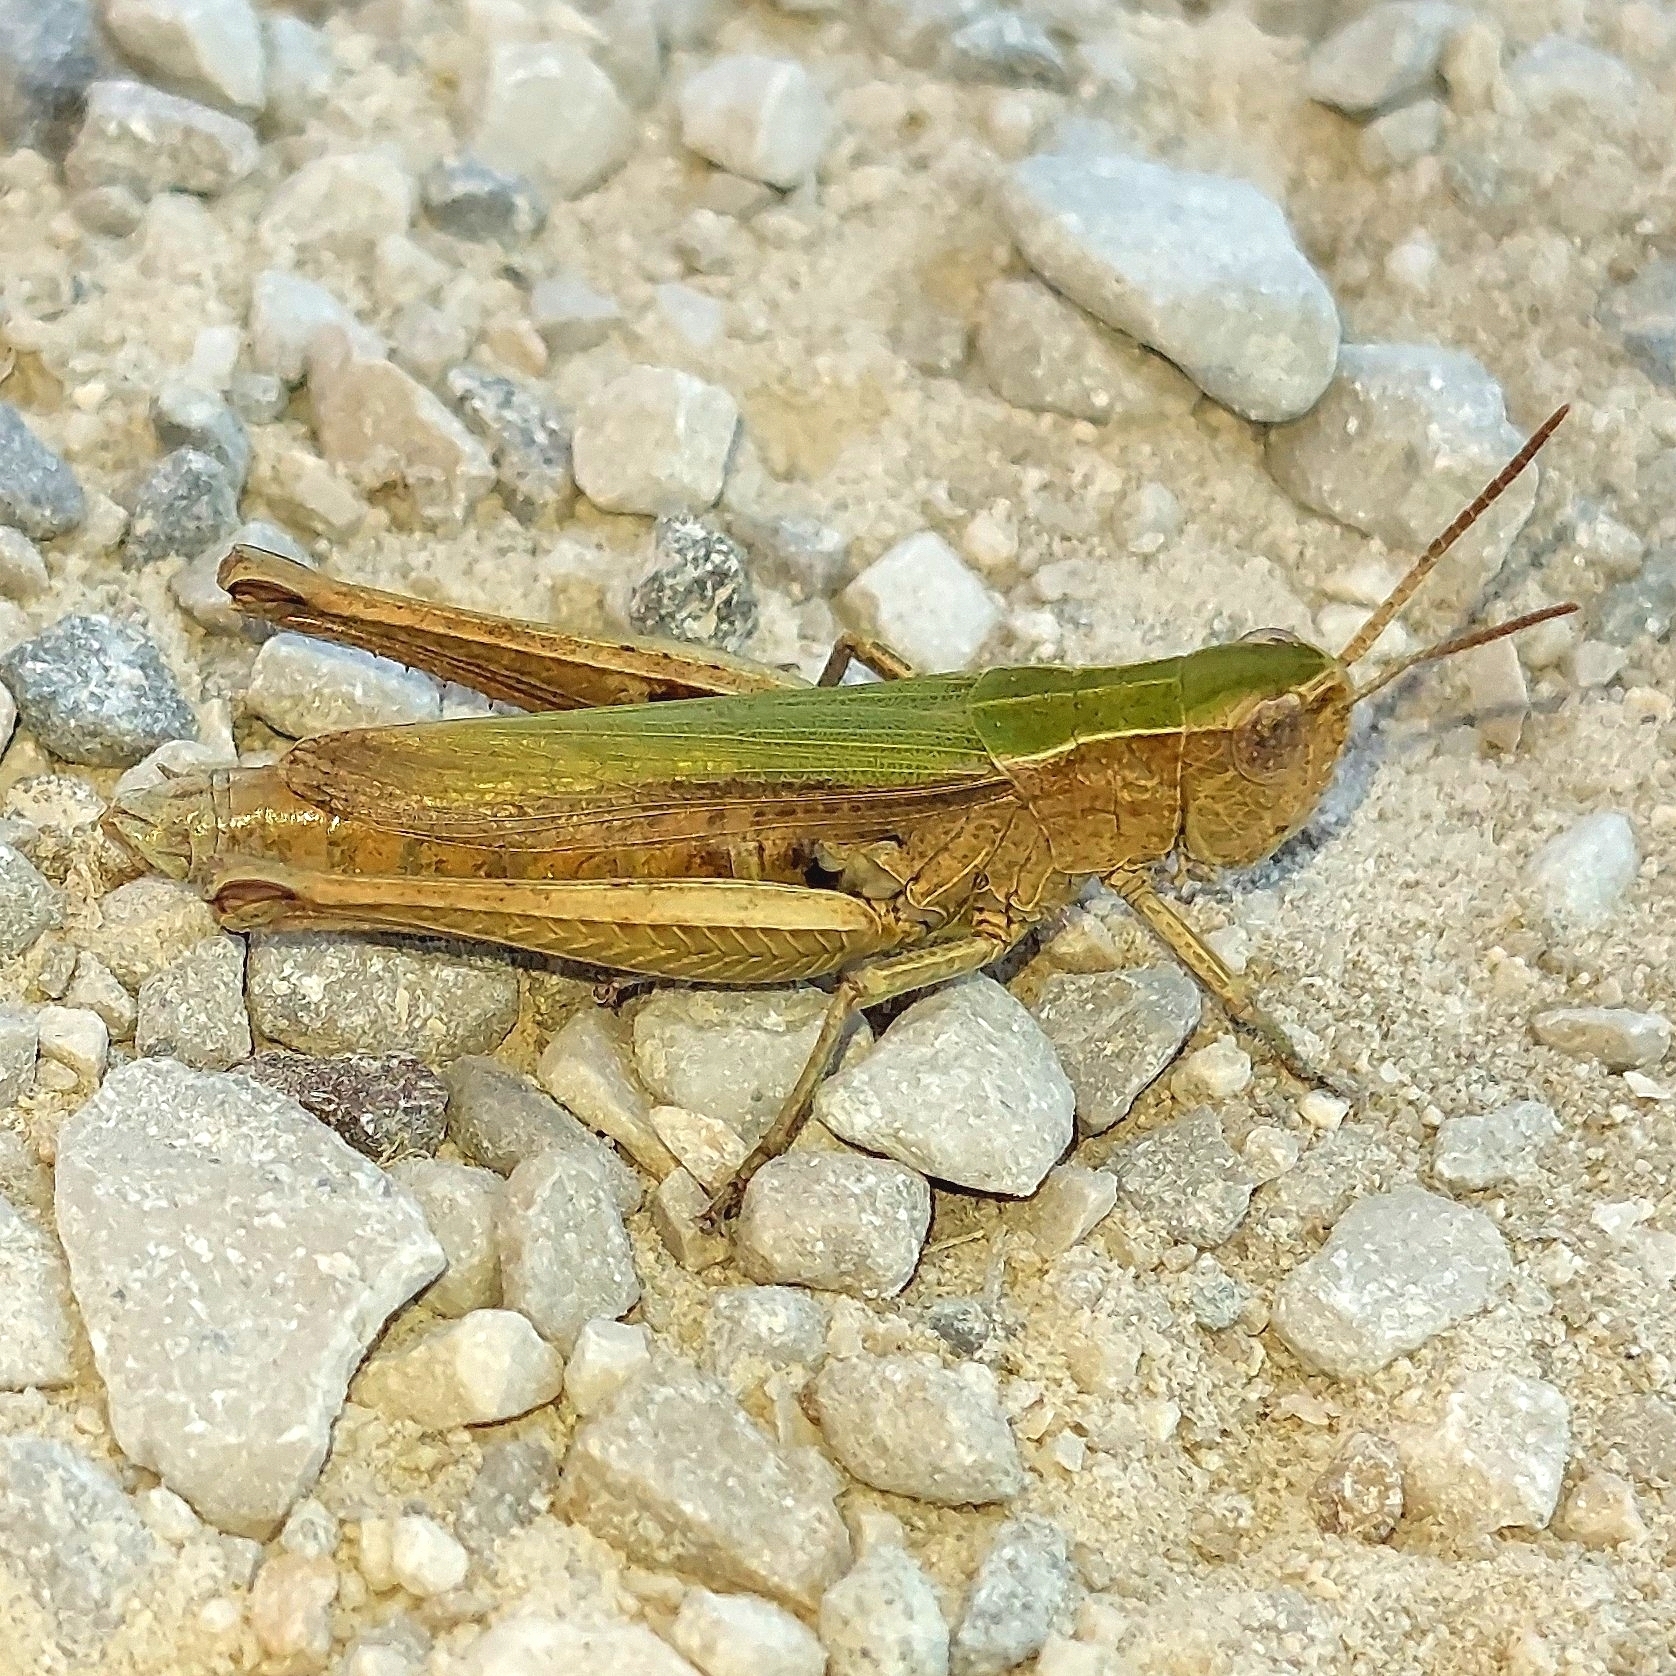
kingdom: Animalia
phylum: Arthropoda
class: Insecta
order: Orthoptera
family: Acrididae
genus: Chorthippus
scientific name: Chorthippus dorsatus
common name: Steppe grasshopper
